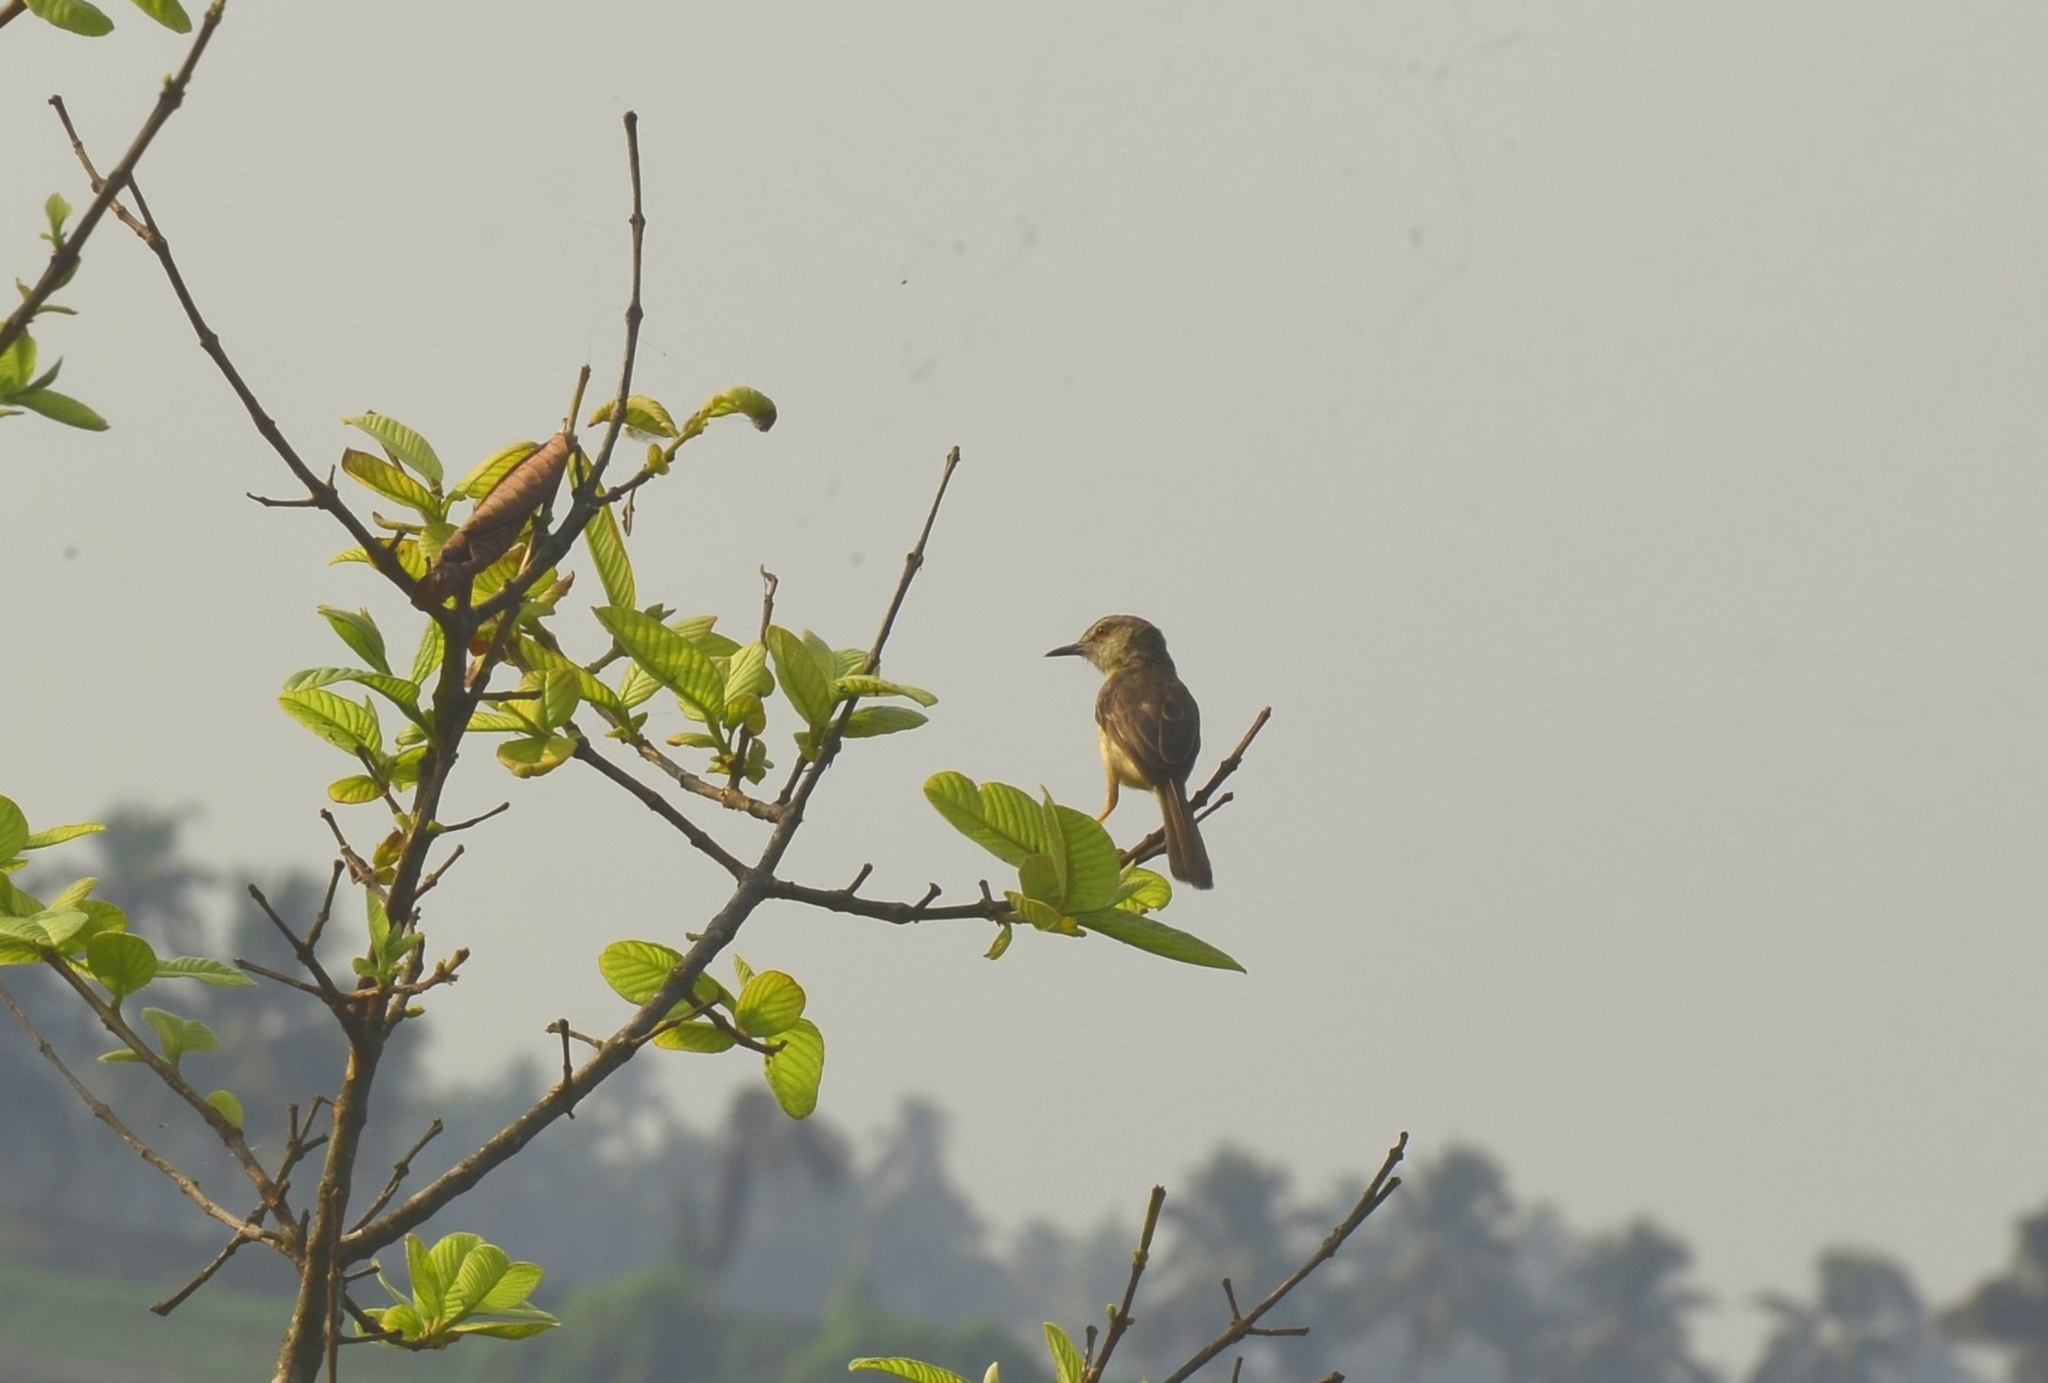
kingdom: Animalia
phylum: Chordata
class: Aves
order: Passeriformes
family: Cisticolidae
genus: Prinia
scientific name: Prinia inornata
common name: Plain prinia
